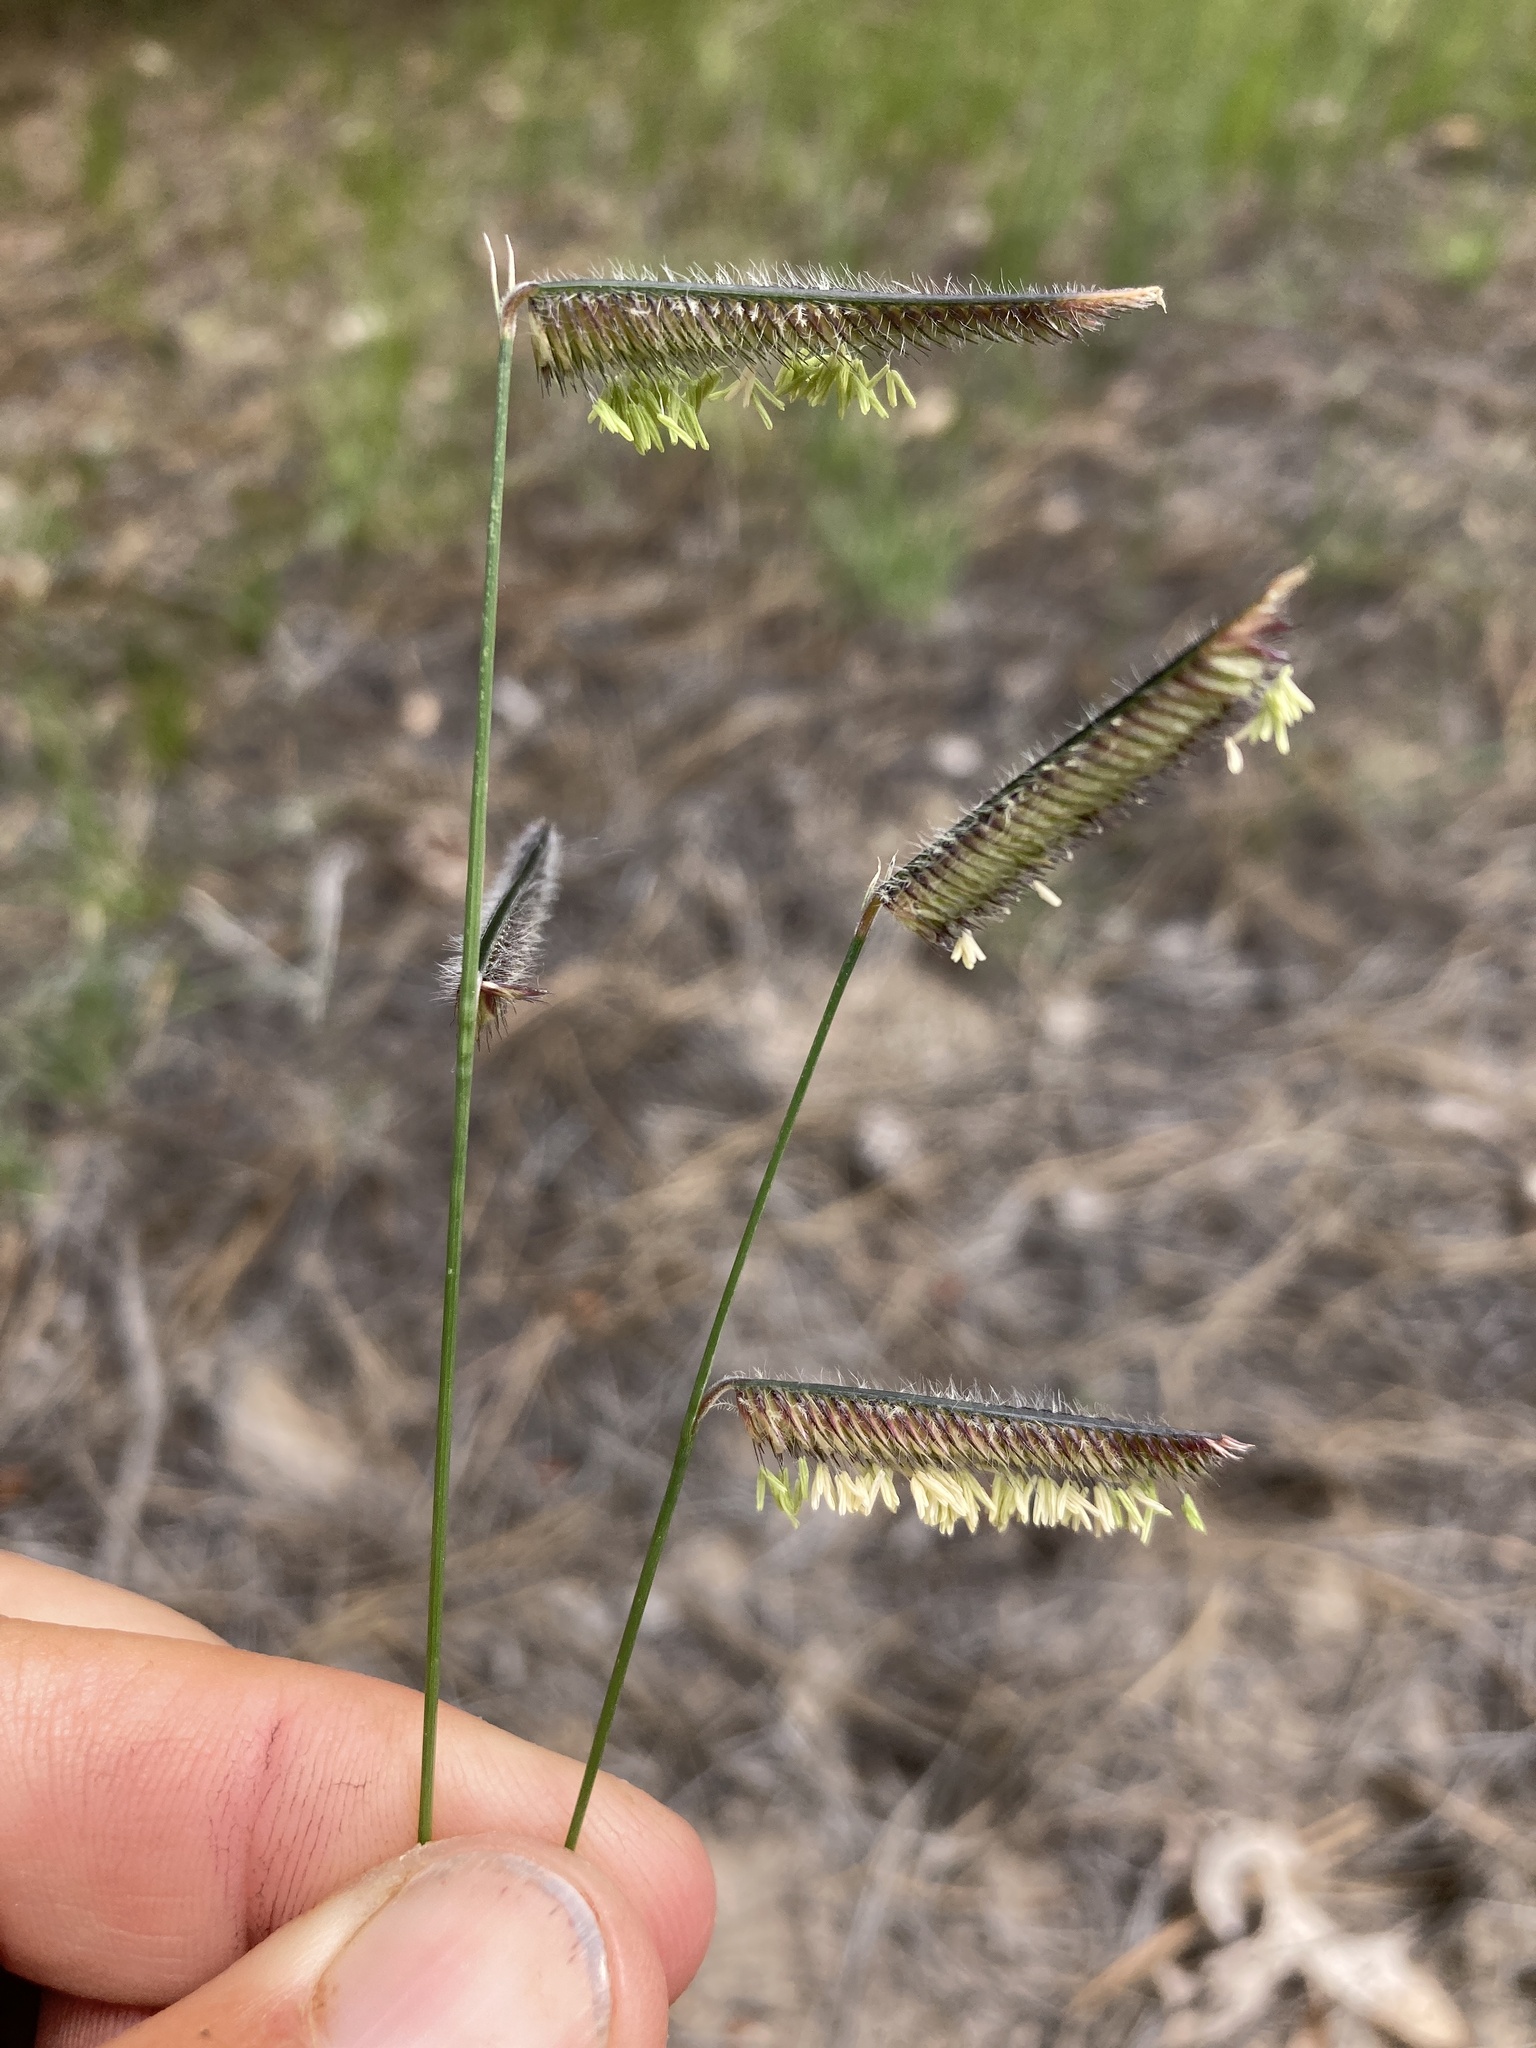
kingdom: Plantae
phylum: Tracheophyta
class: Liliopsida
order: Poales
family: Poaceae
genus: Bouteloua
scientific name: Bouteloua gracilis
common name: Blue grama
